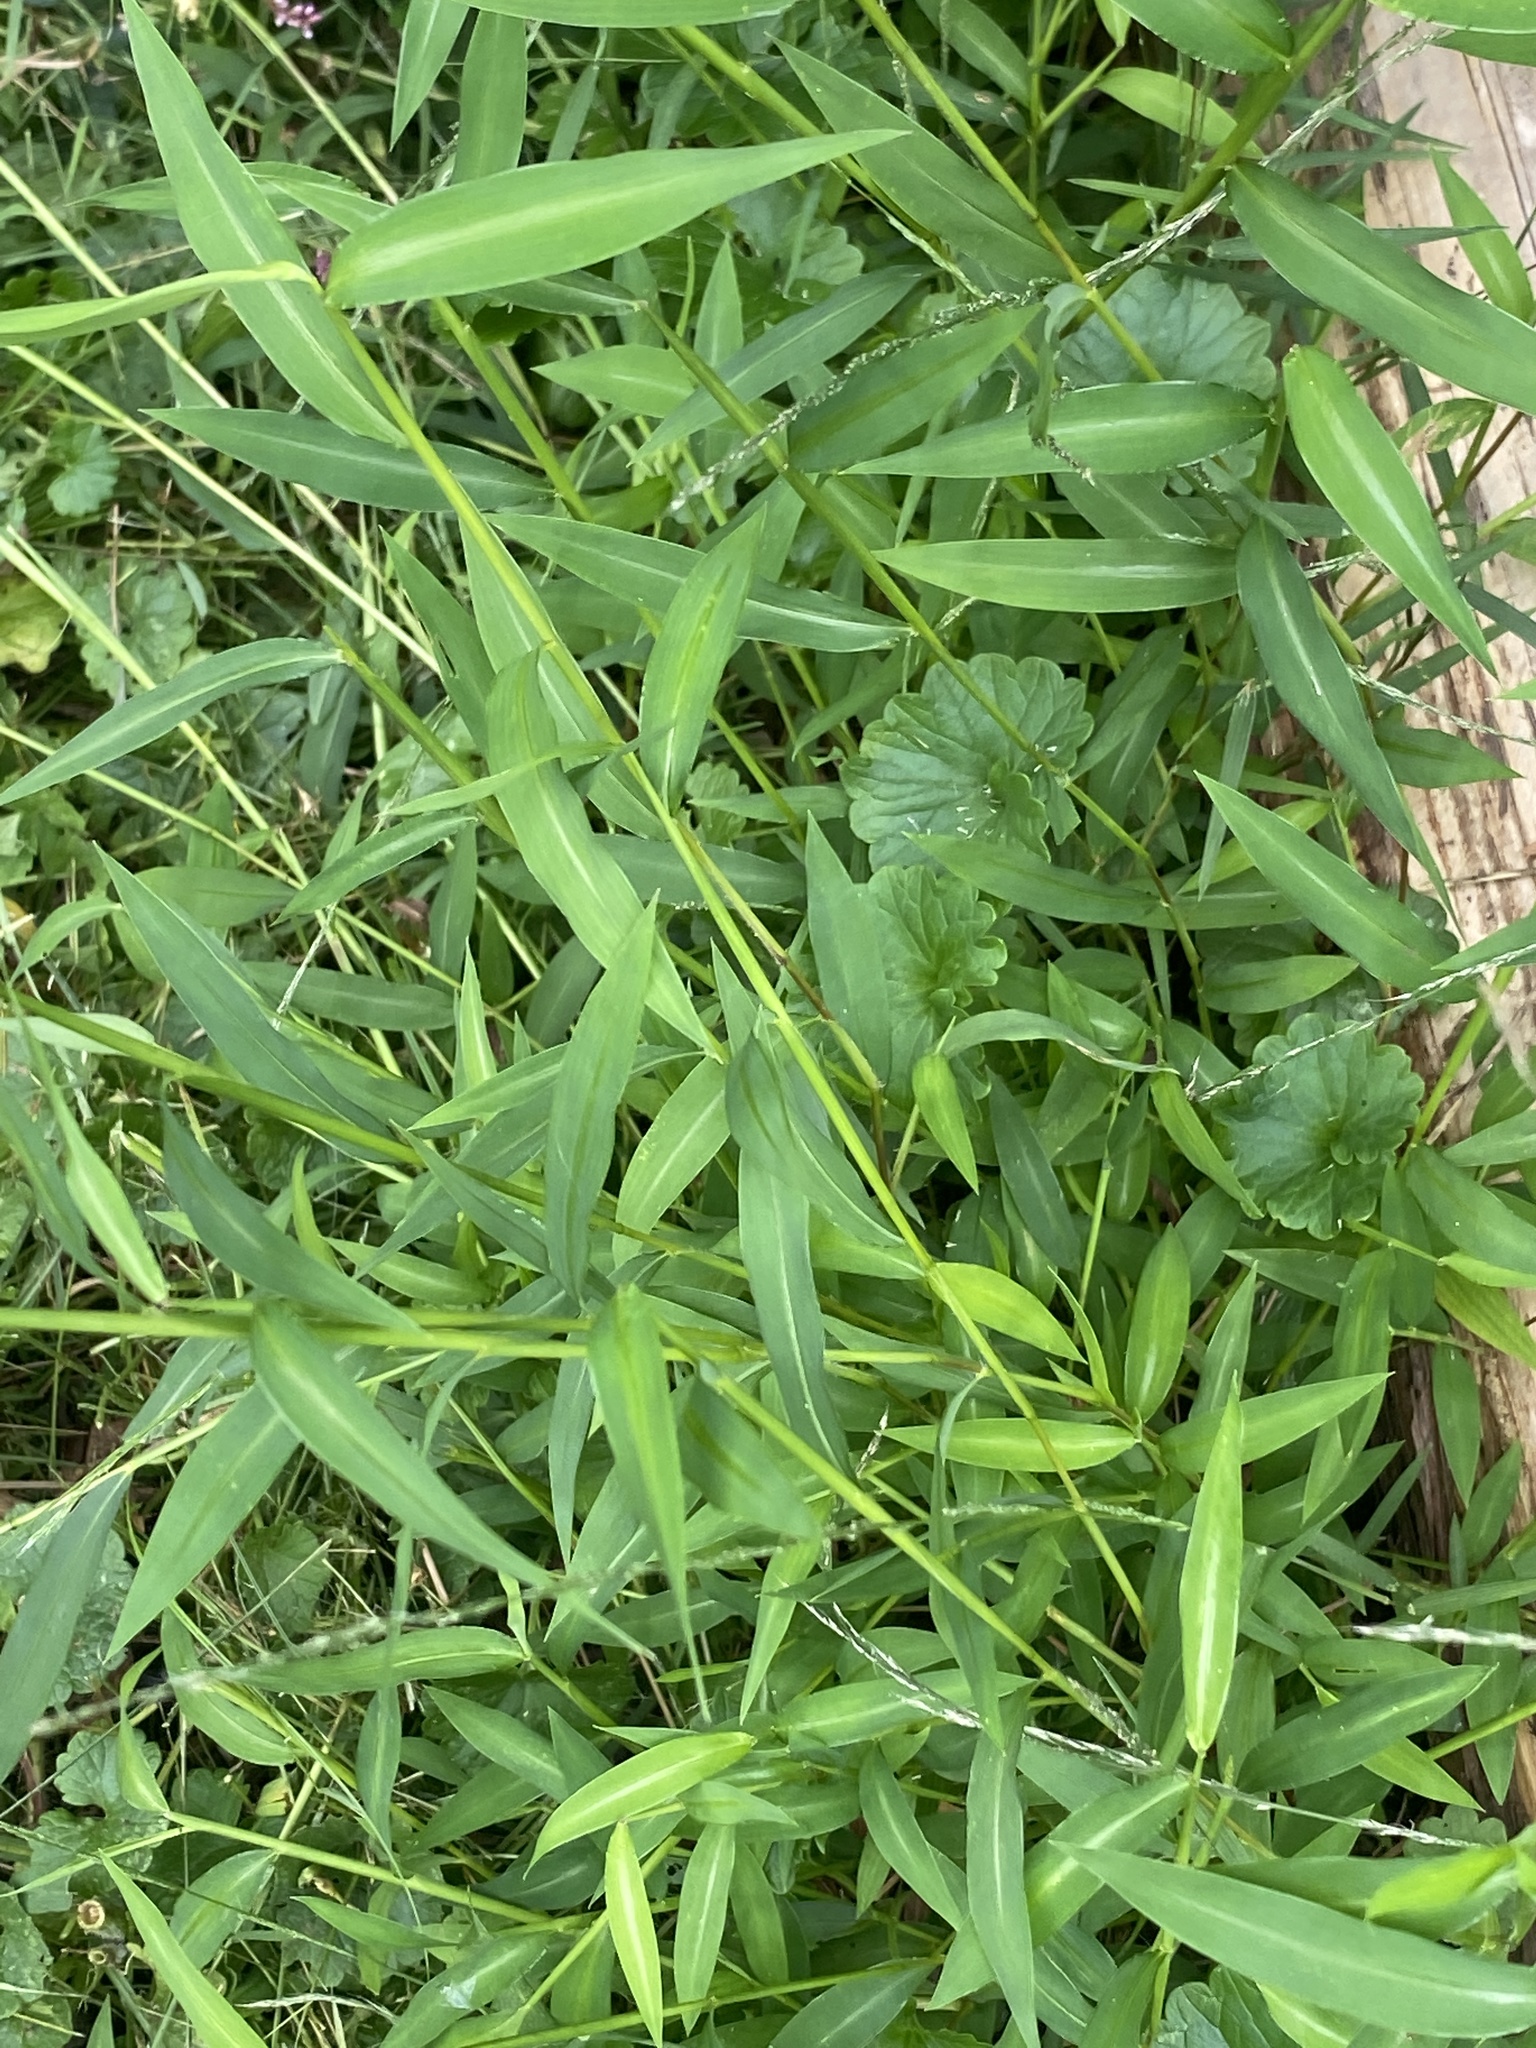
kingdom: Plantae
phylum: Tracheophyta
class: Liliopsida
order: Poales
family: Poaceae
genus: Microstegium
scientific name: Microstegium vimineum
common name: Japanese stiltgrass
